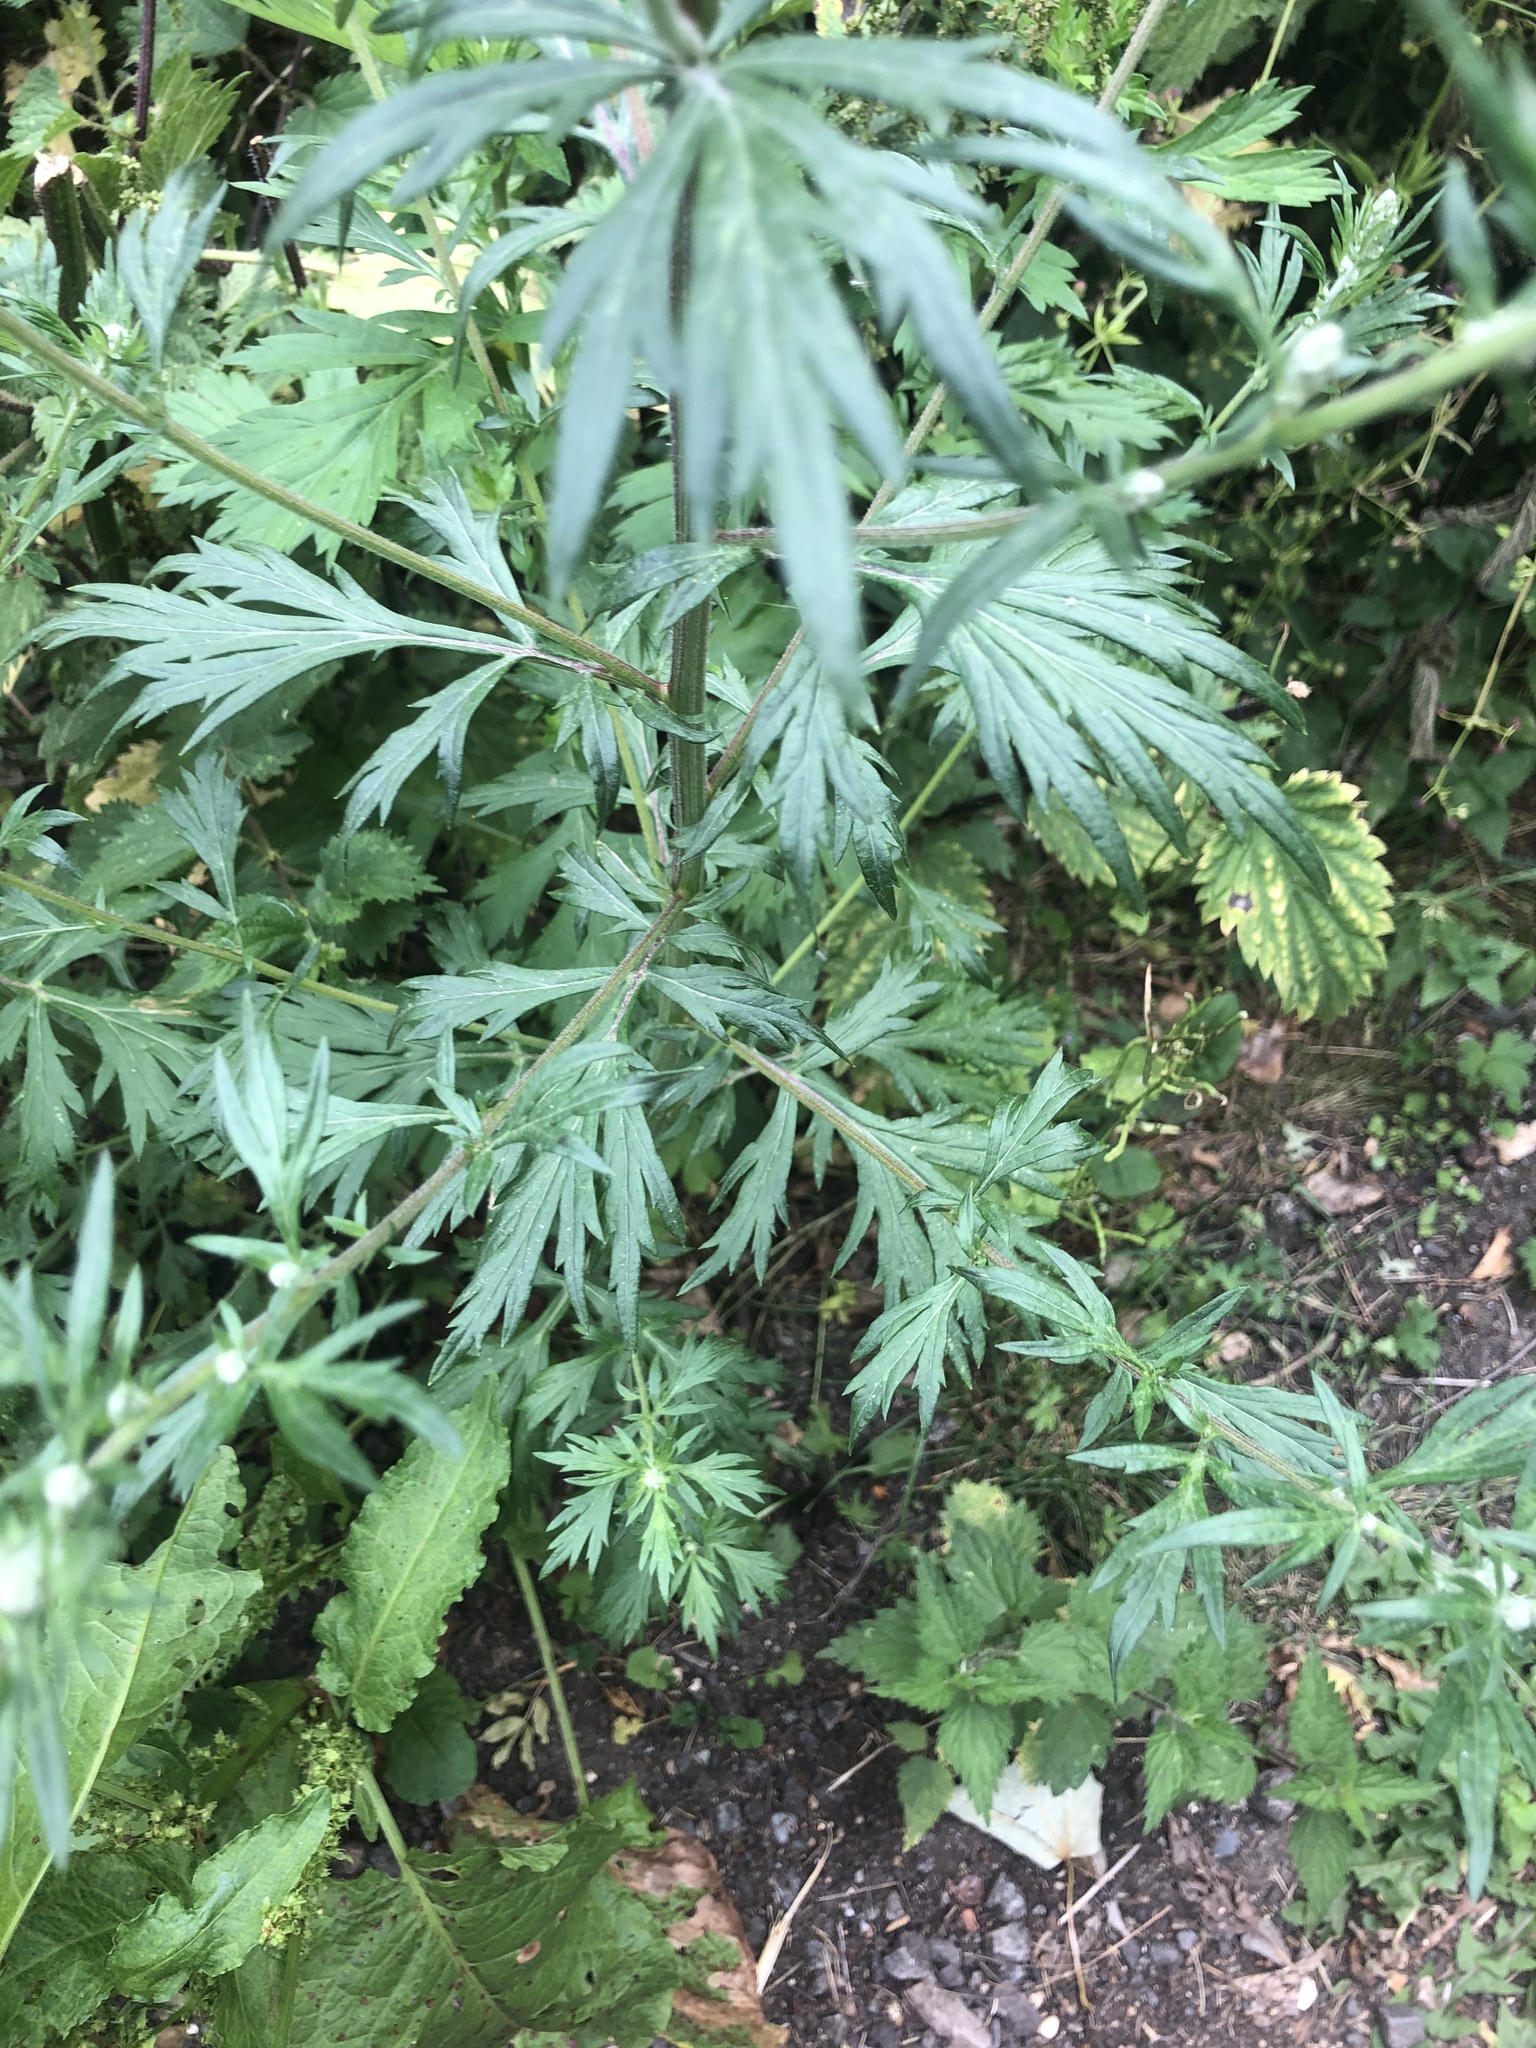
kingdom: Plantae
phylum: Tracheophyta
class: Magnoliopsida
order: Asterales
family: Asteraceae
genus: Artemisia
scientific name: Artemisia vulgaris
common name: Mugwort
